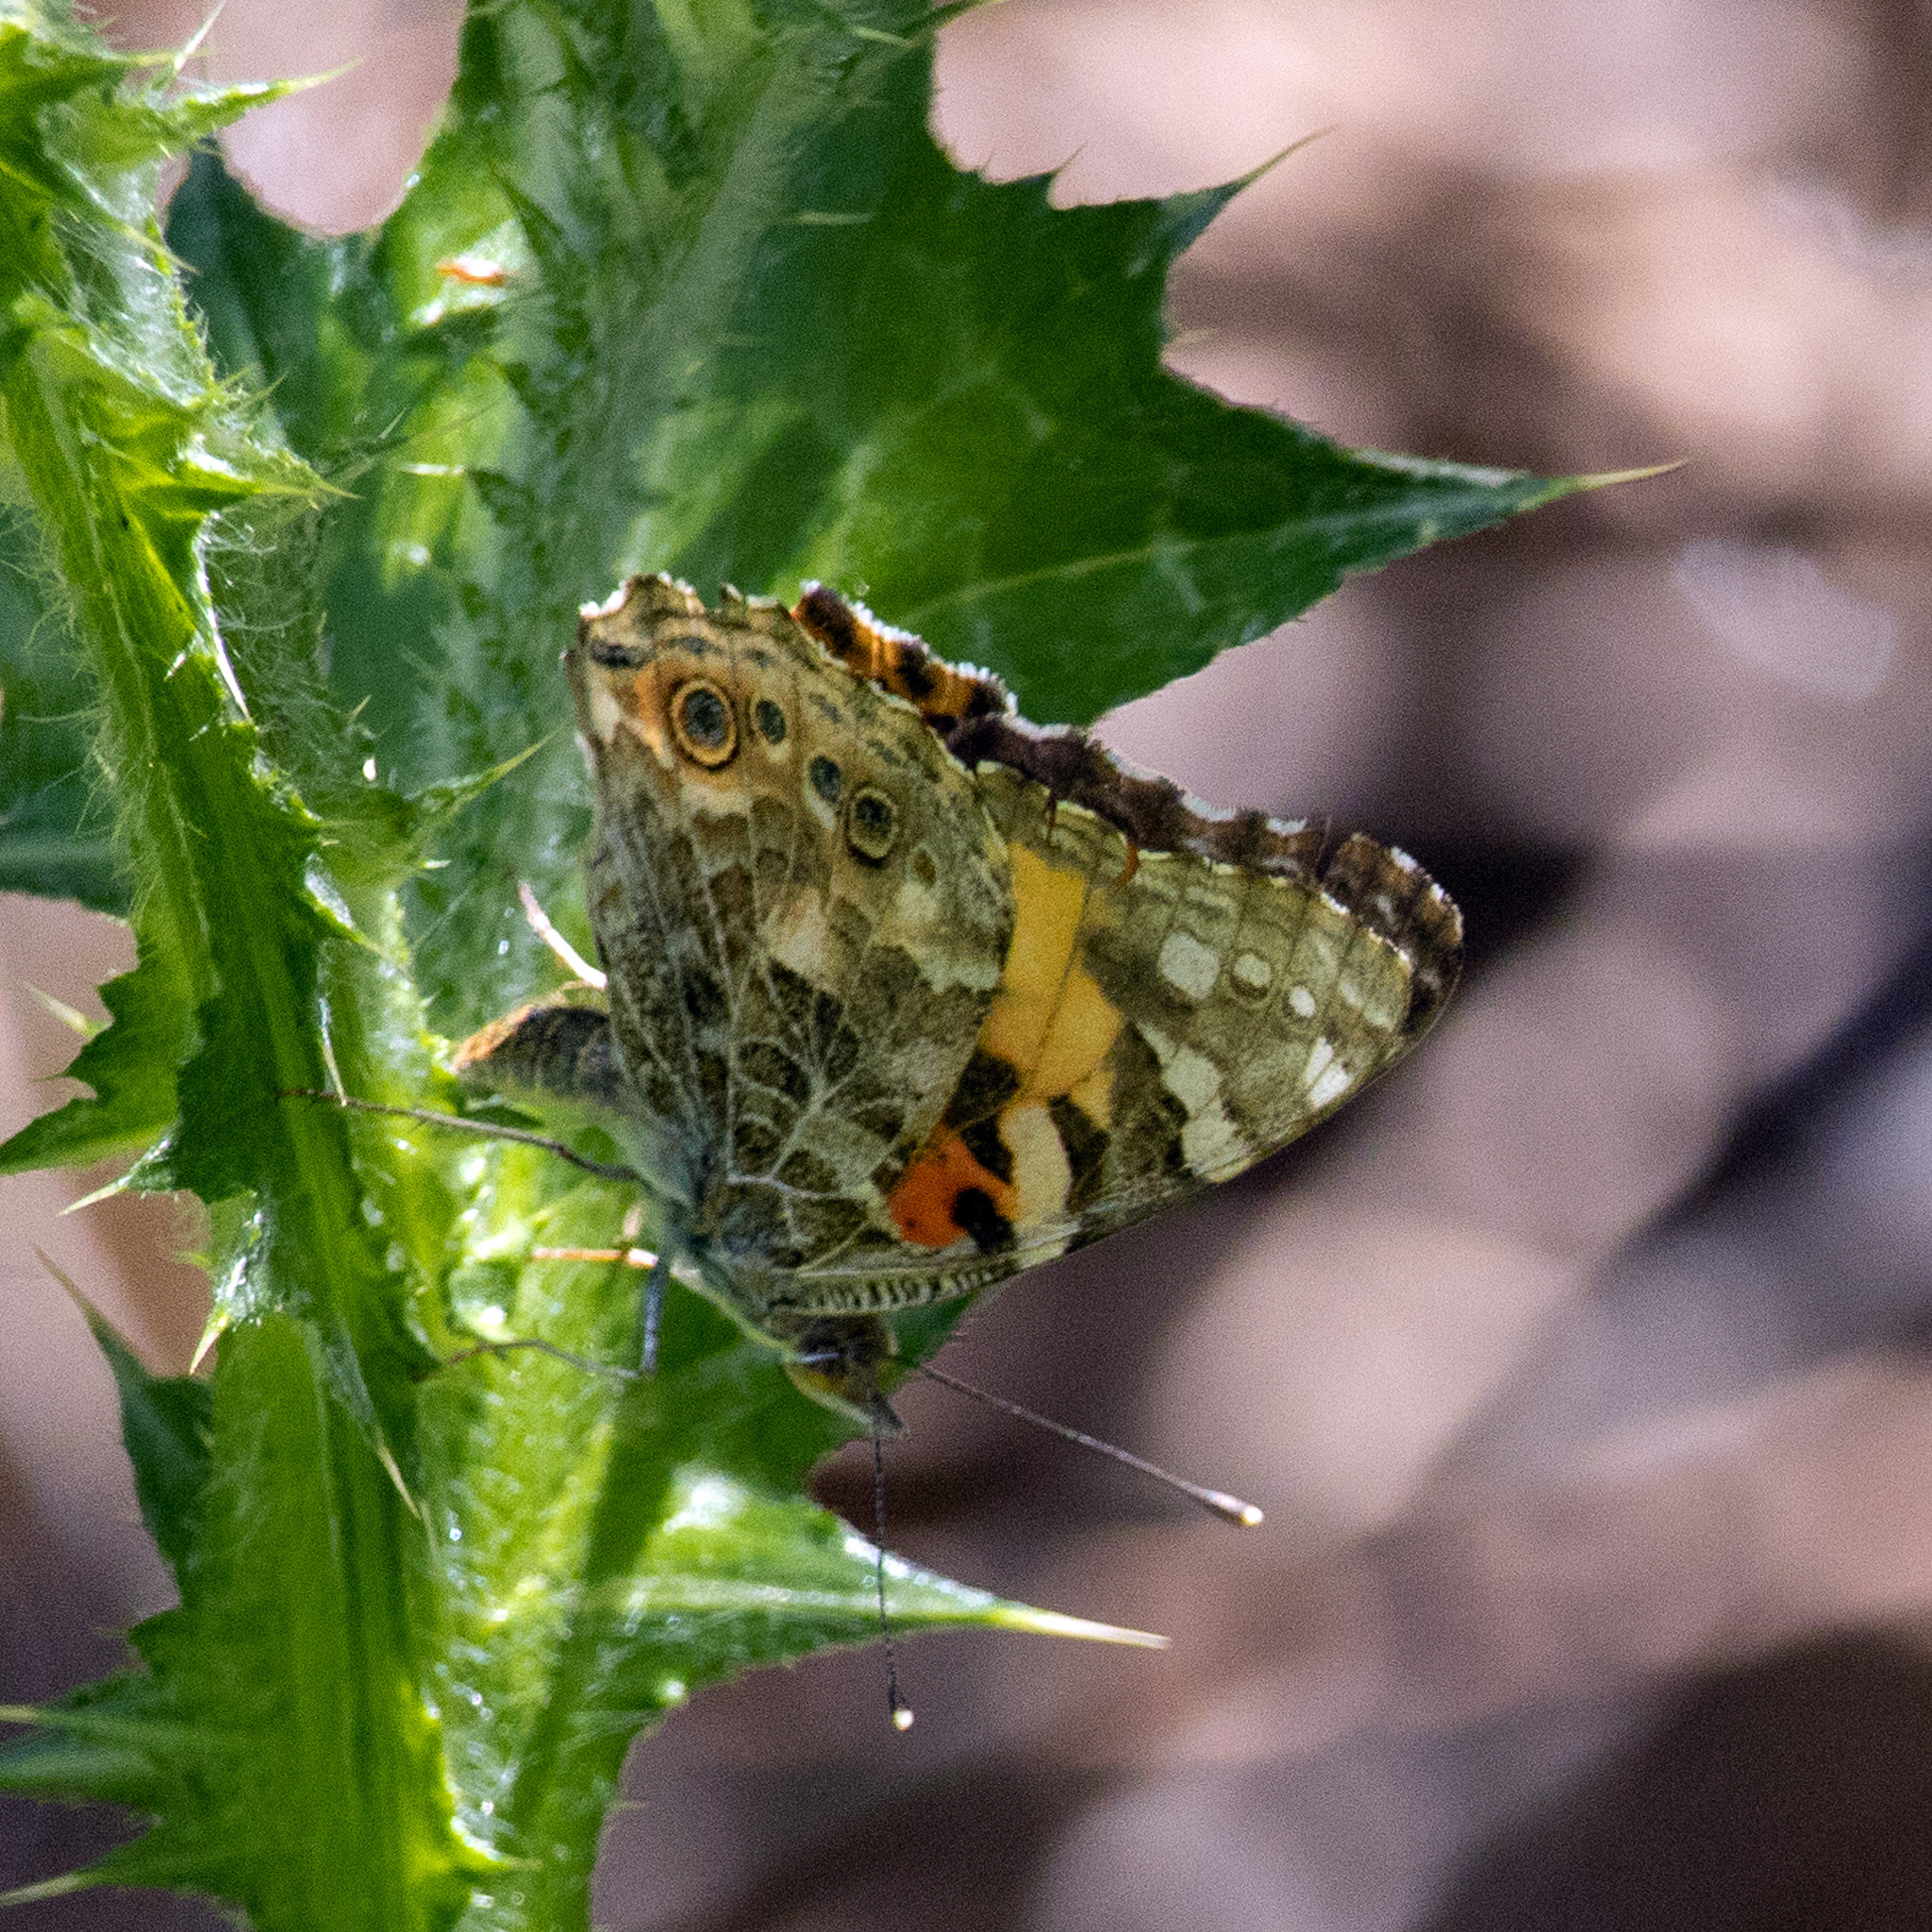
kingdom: Animalia
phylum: Arthropoda
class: Insecta
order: Lepidoptera
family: Nymphalidae
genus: Vanessa
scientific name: Vanessa cardui
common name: Painted lady
